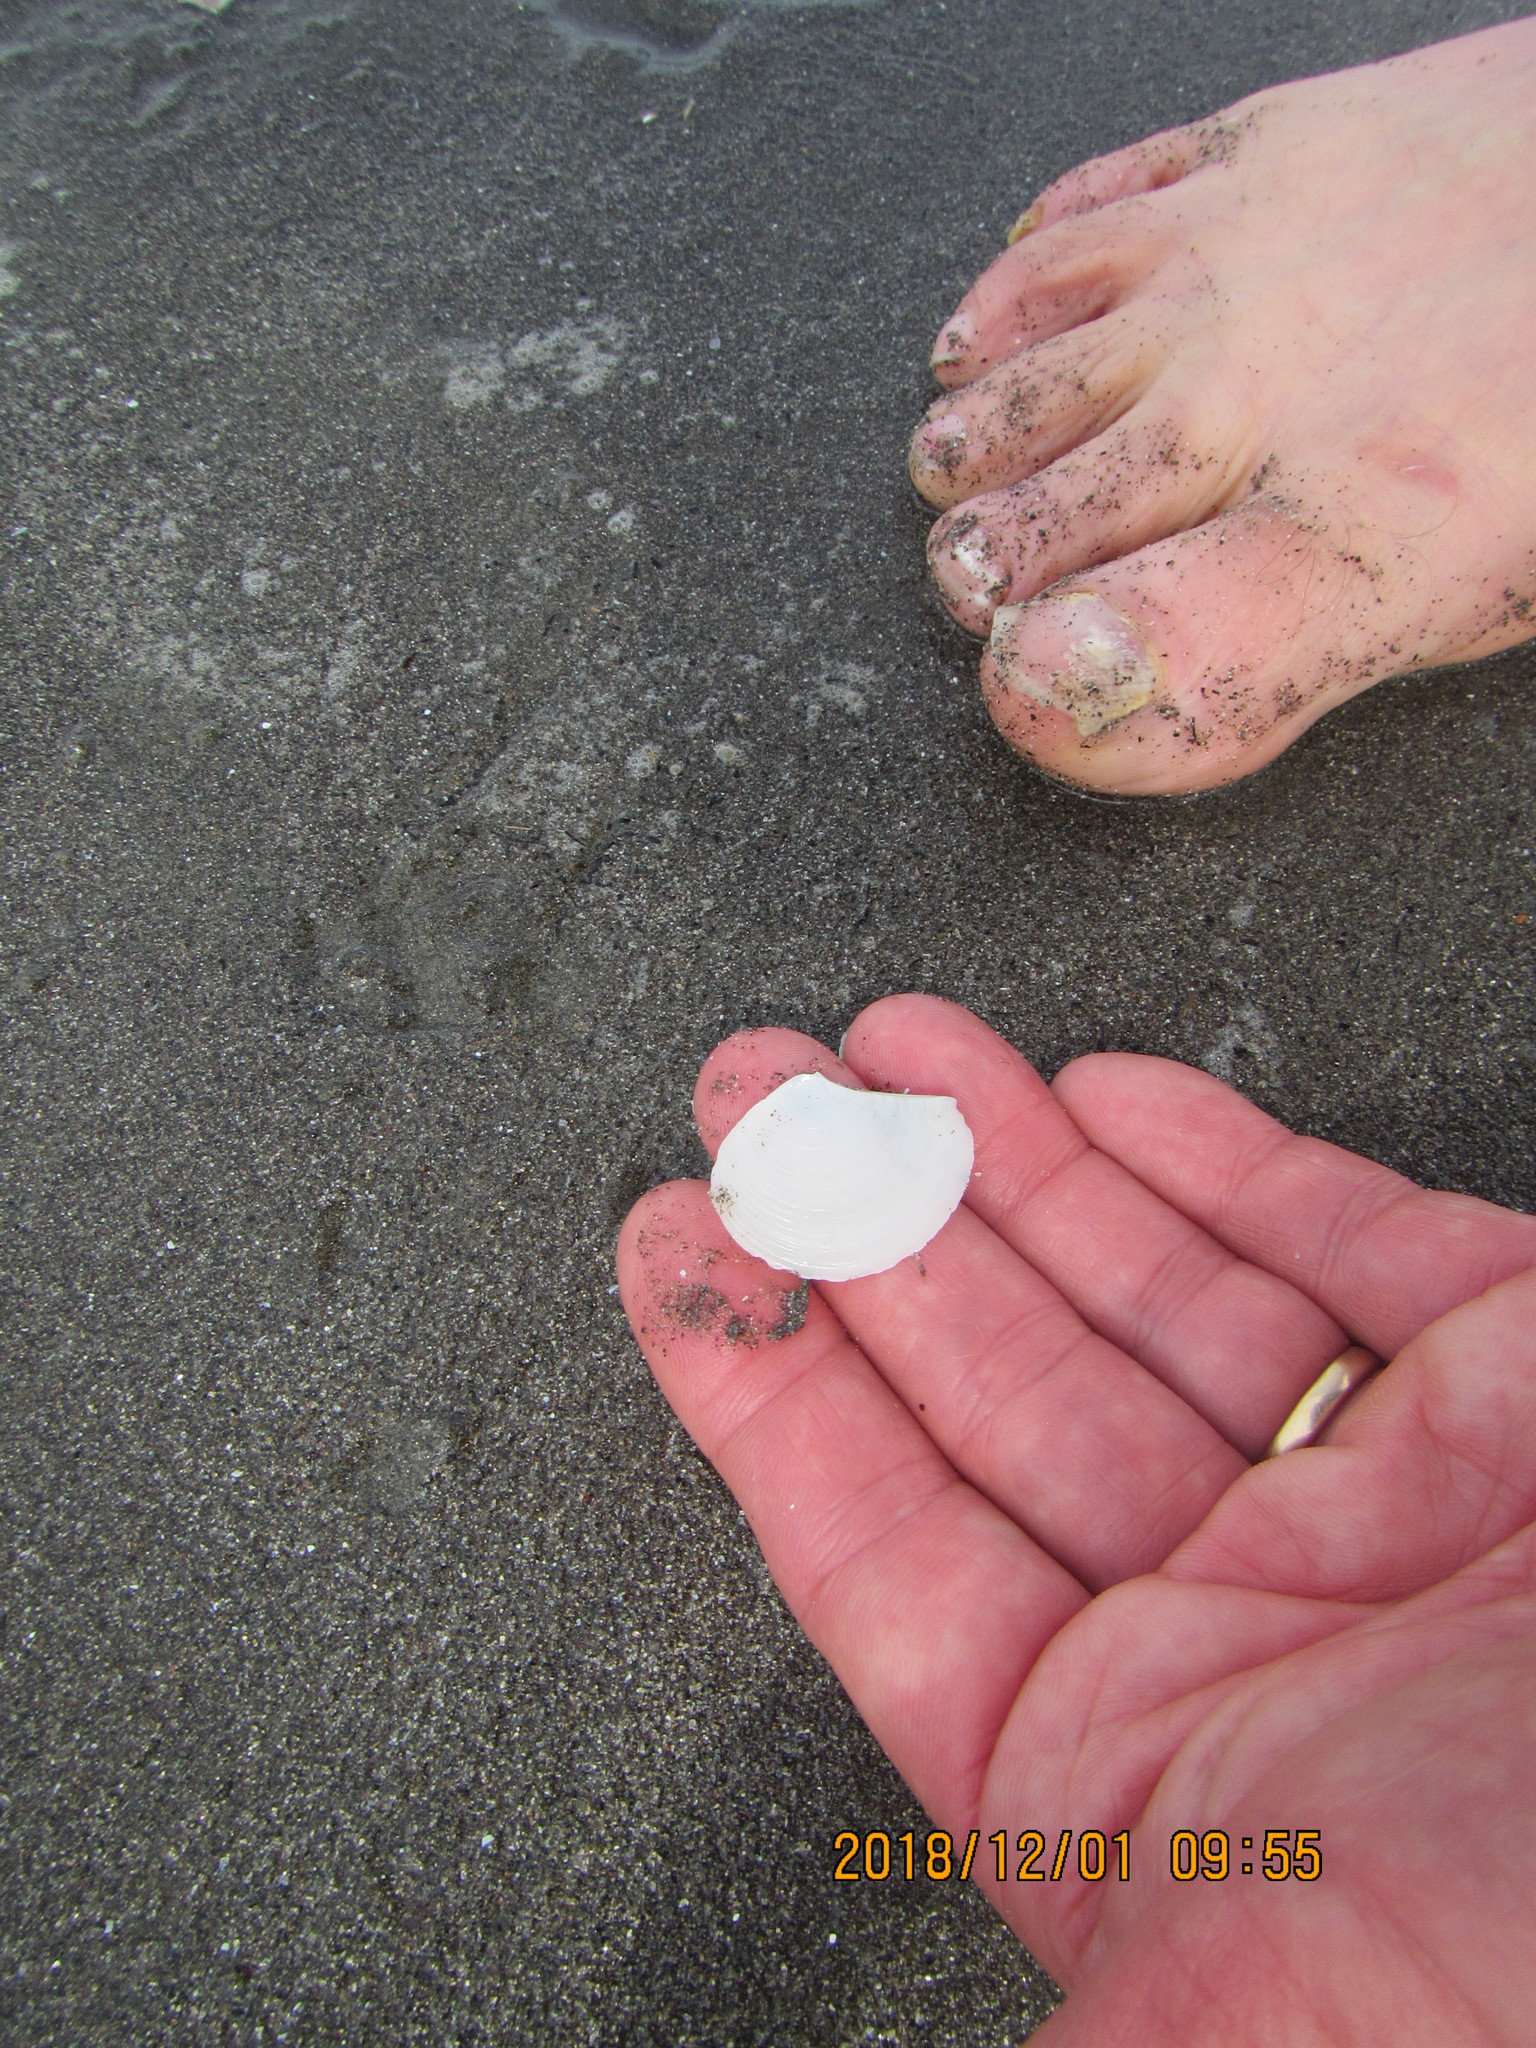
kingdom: Animalia
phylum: Mollusca
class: Bivalvia
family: Myochamidae
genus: Myadora
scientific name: Myadora striata
